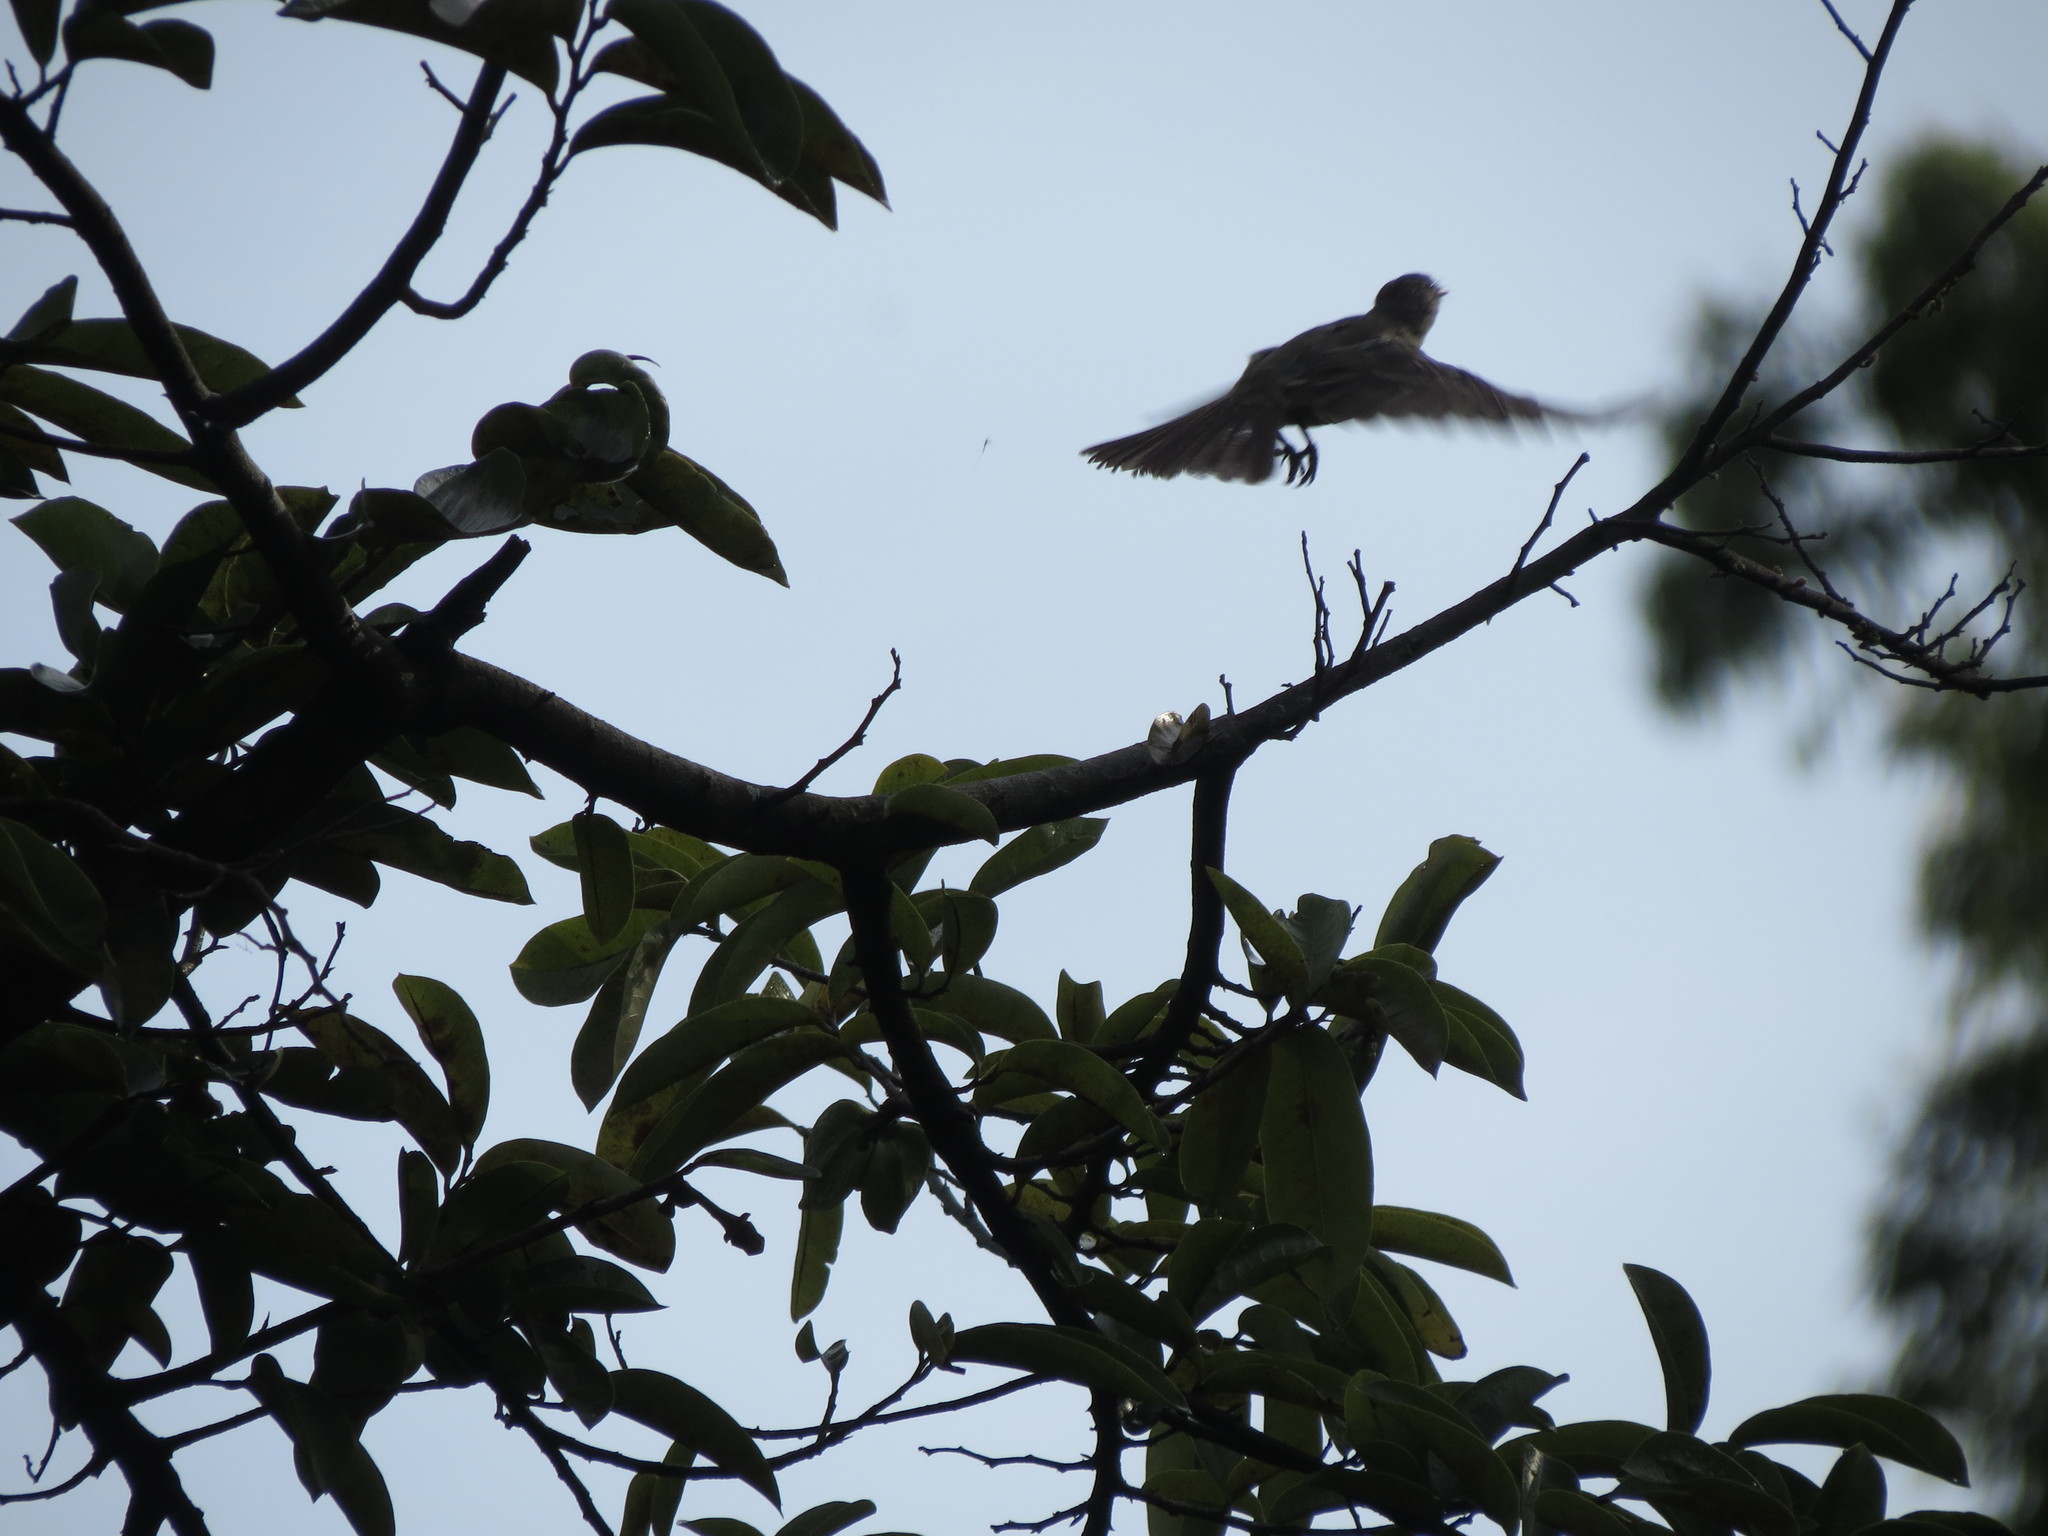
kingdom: Animalia
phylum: Chordata
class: Aves
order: Passeriformes
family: Tyrannidae
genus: Elaenia
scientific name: Elaenia flavogaster
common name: Yellow-bellied elaenia
